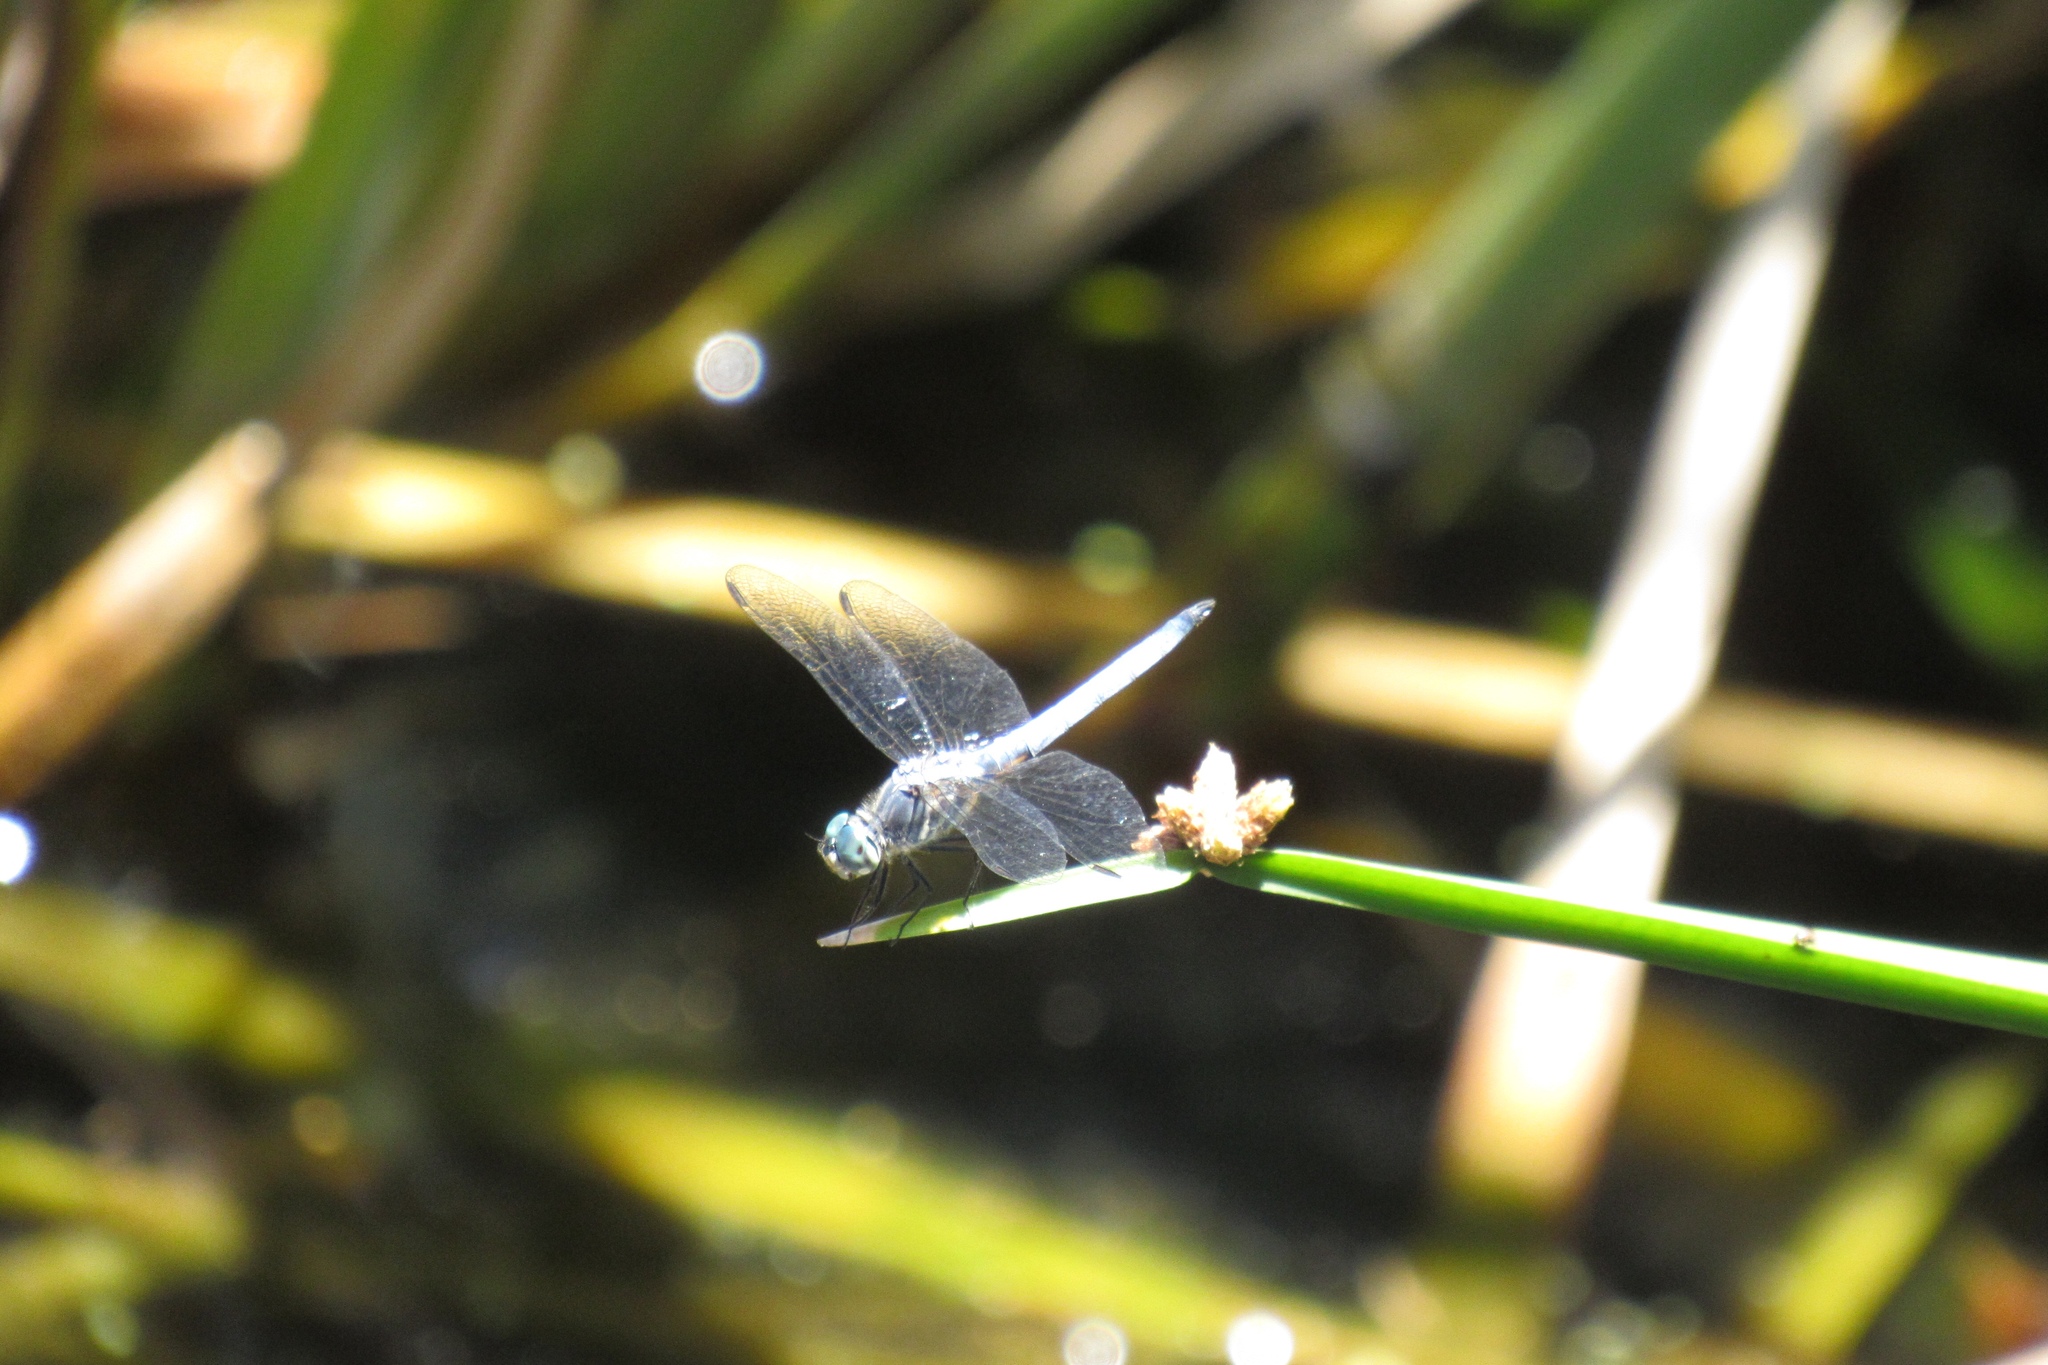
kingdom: Animalia
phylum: Arthropoda
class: Insecta
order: Odonata
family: Libellulidae
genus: Pachydiplax
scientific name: Pachydiplax longipennis
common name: Blue dasher
